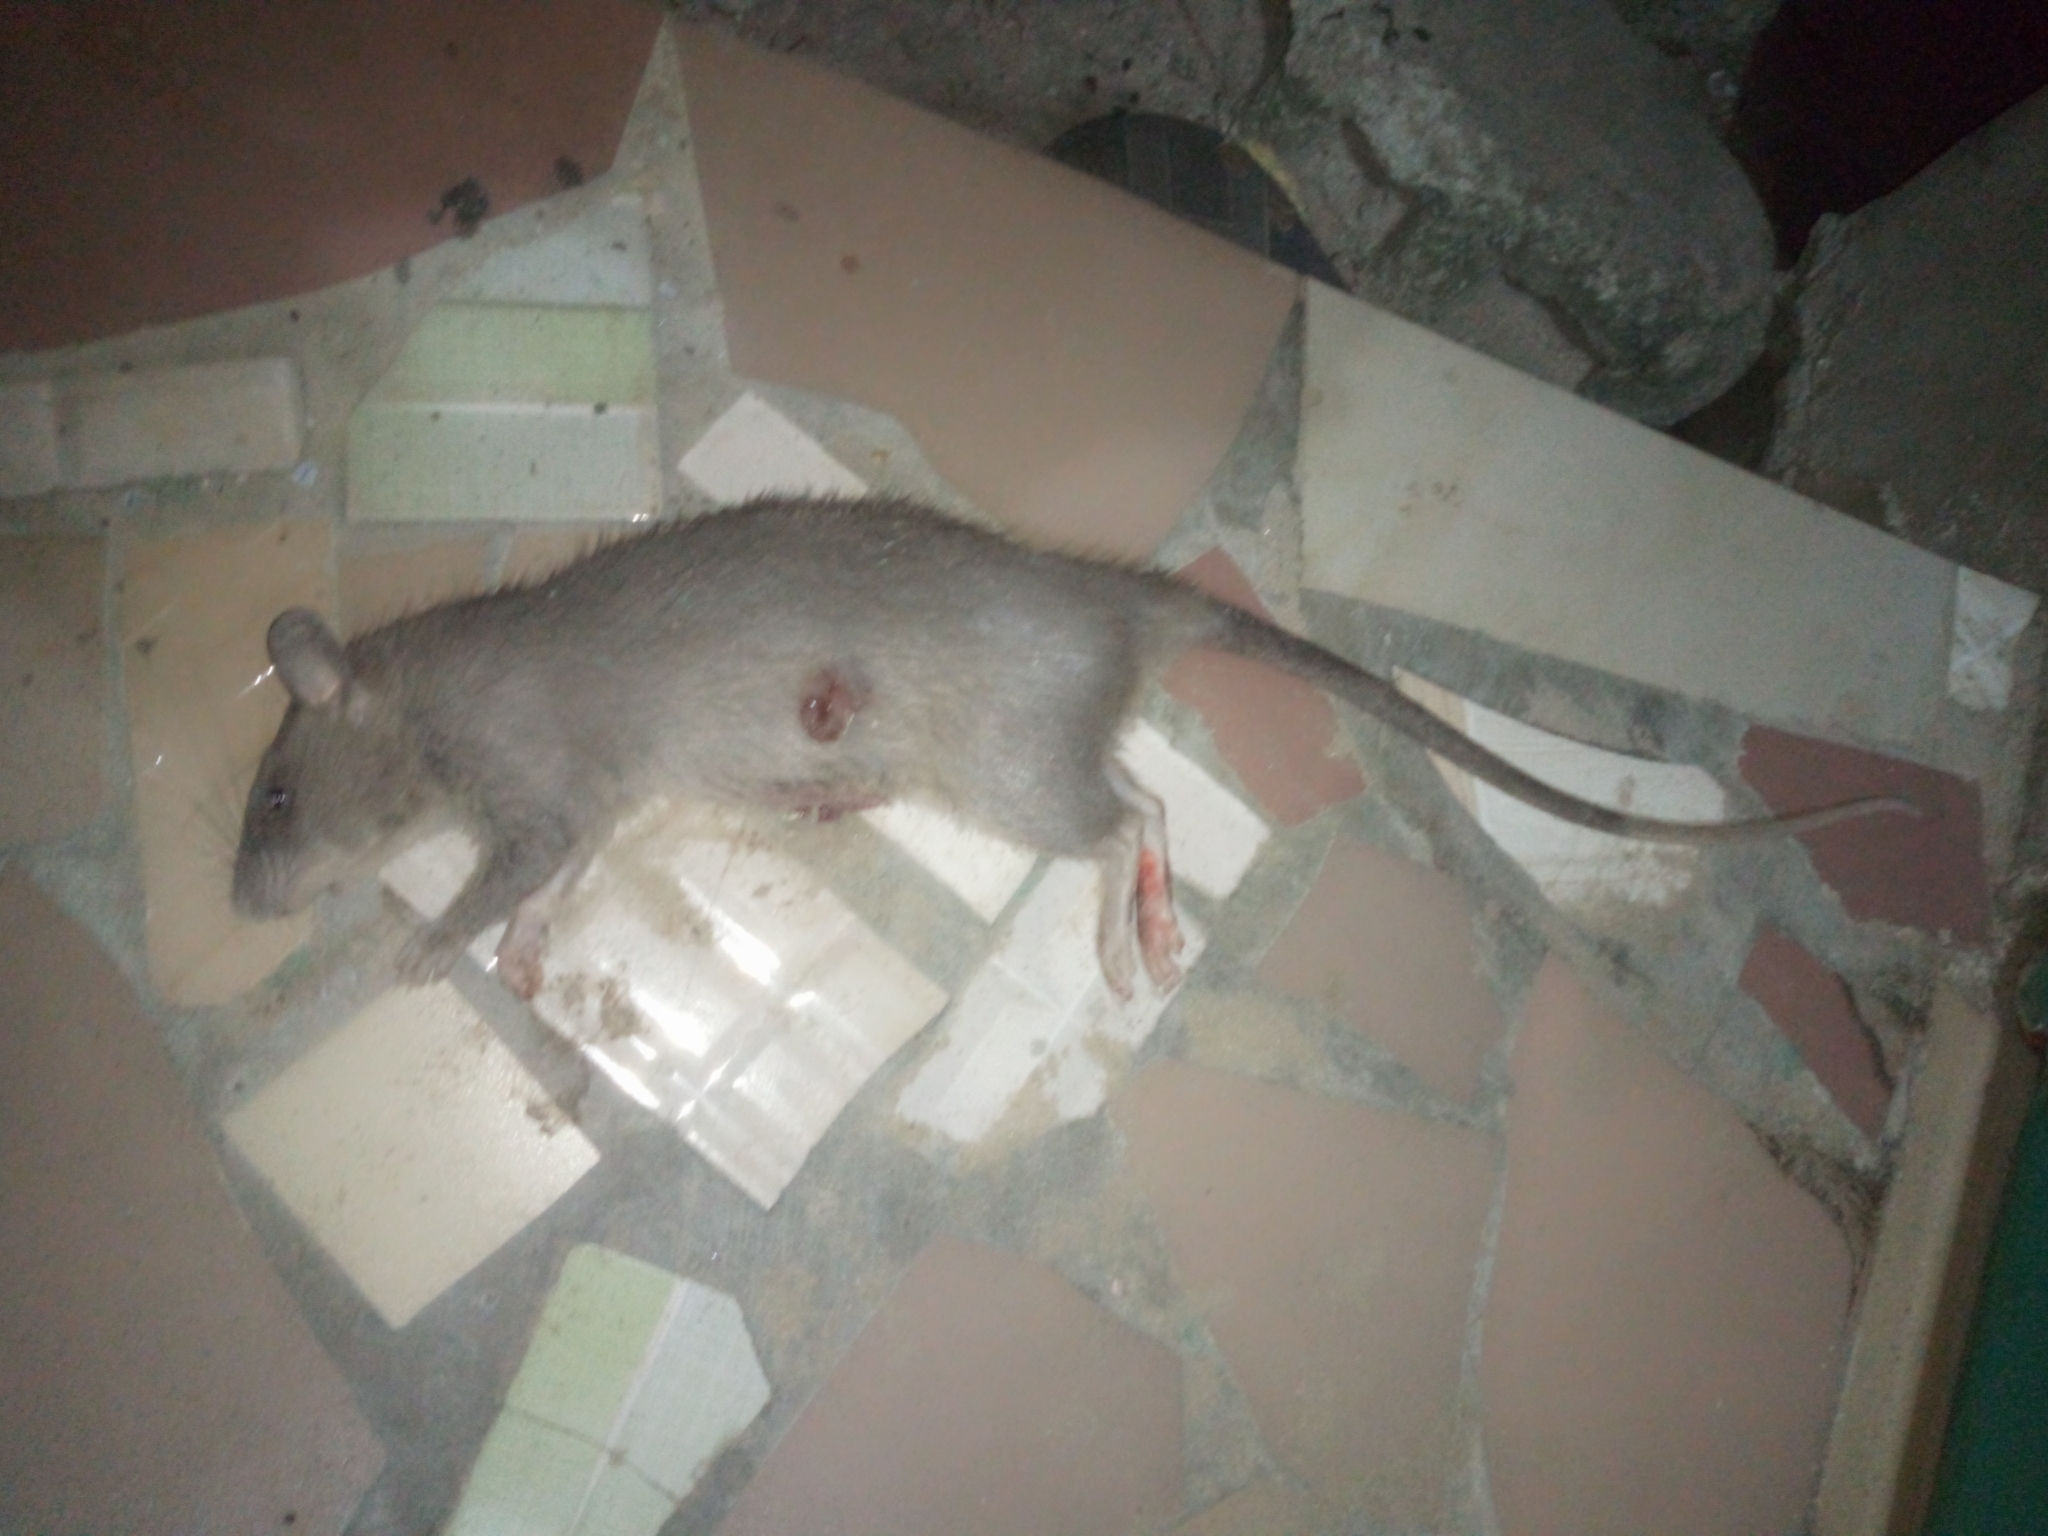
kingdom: Animalia
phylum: Chordata
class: Mammalia
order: Rodentia
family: Nesomyidae
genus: Cricetomys
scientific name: Cricetomys gambianus
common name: Northern giant pouched rat
